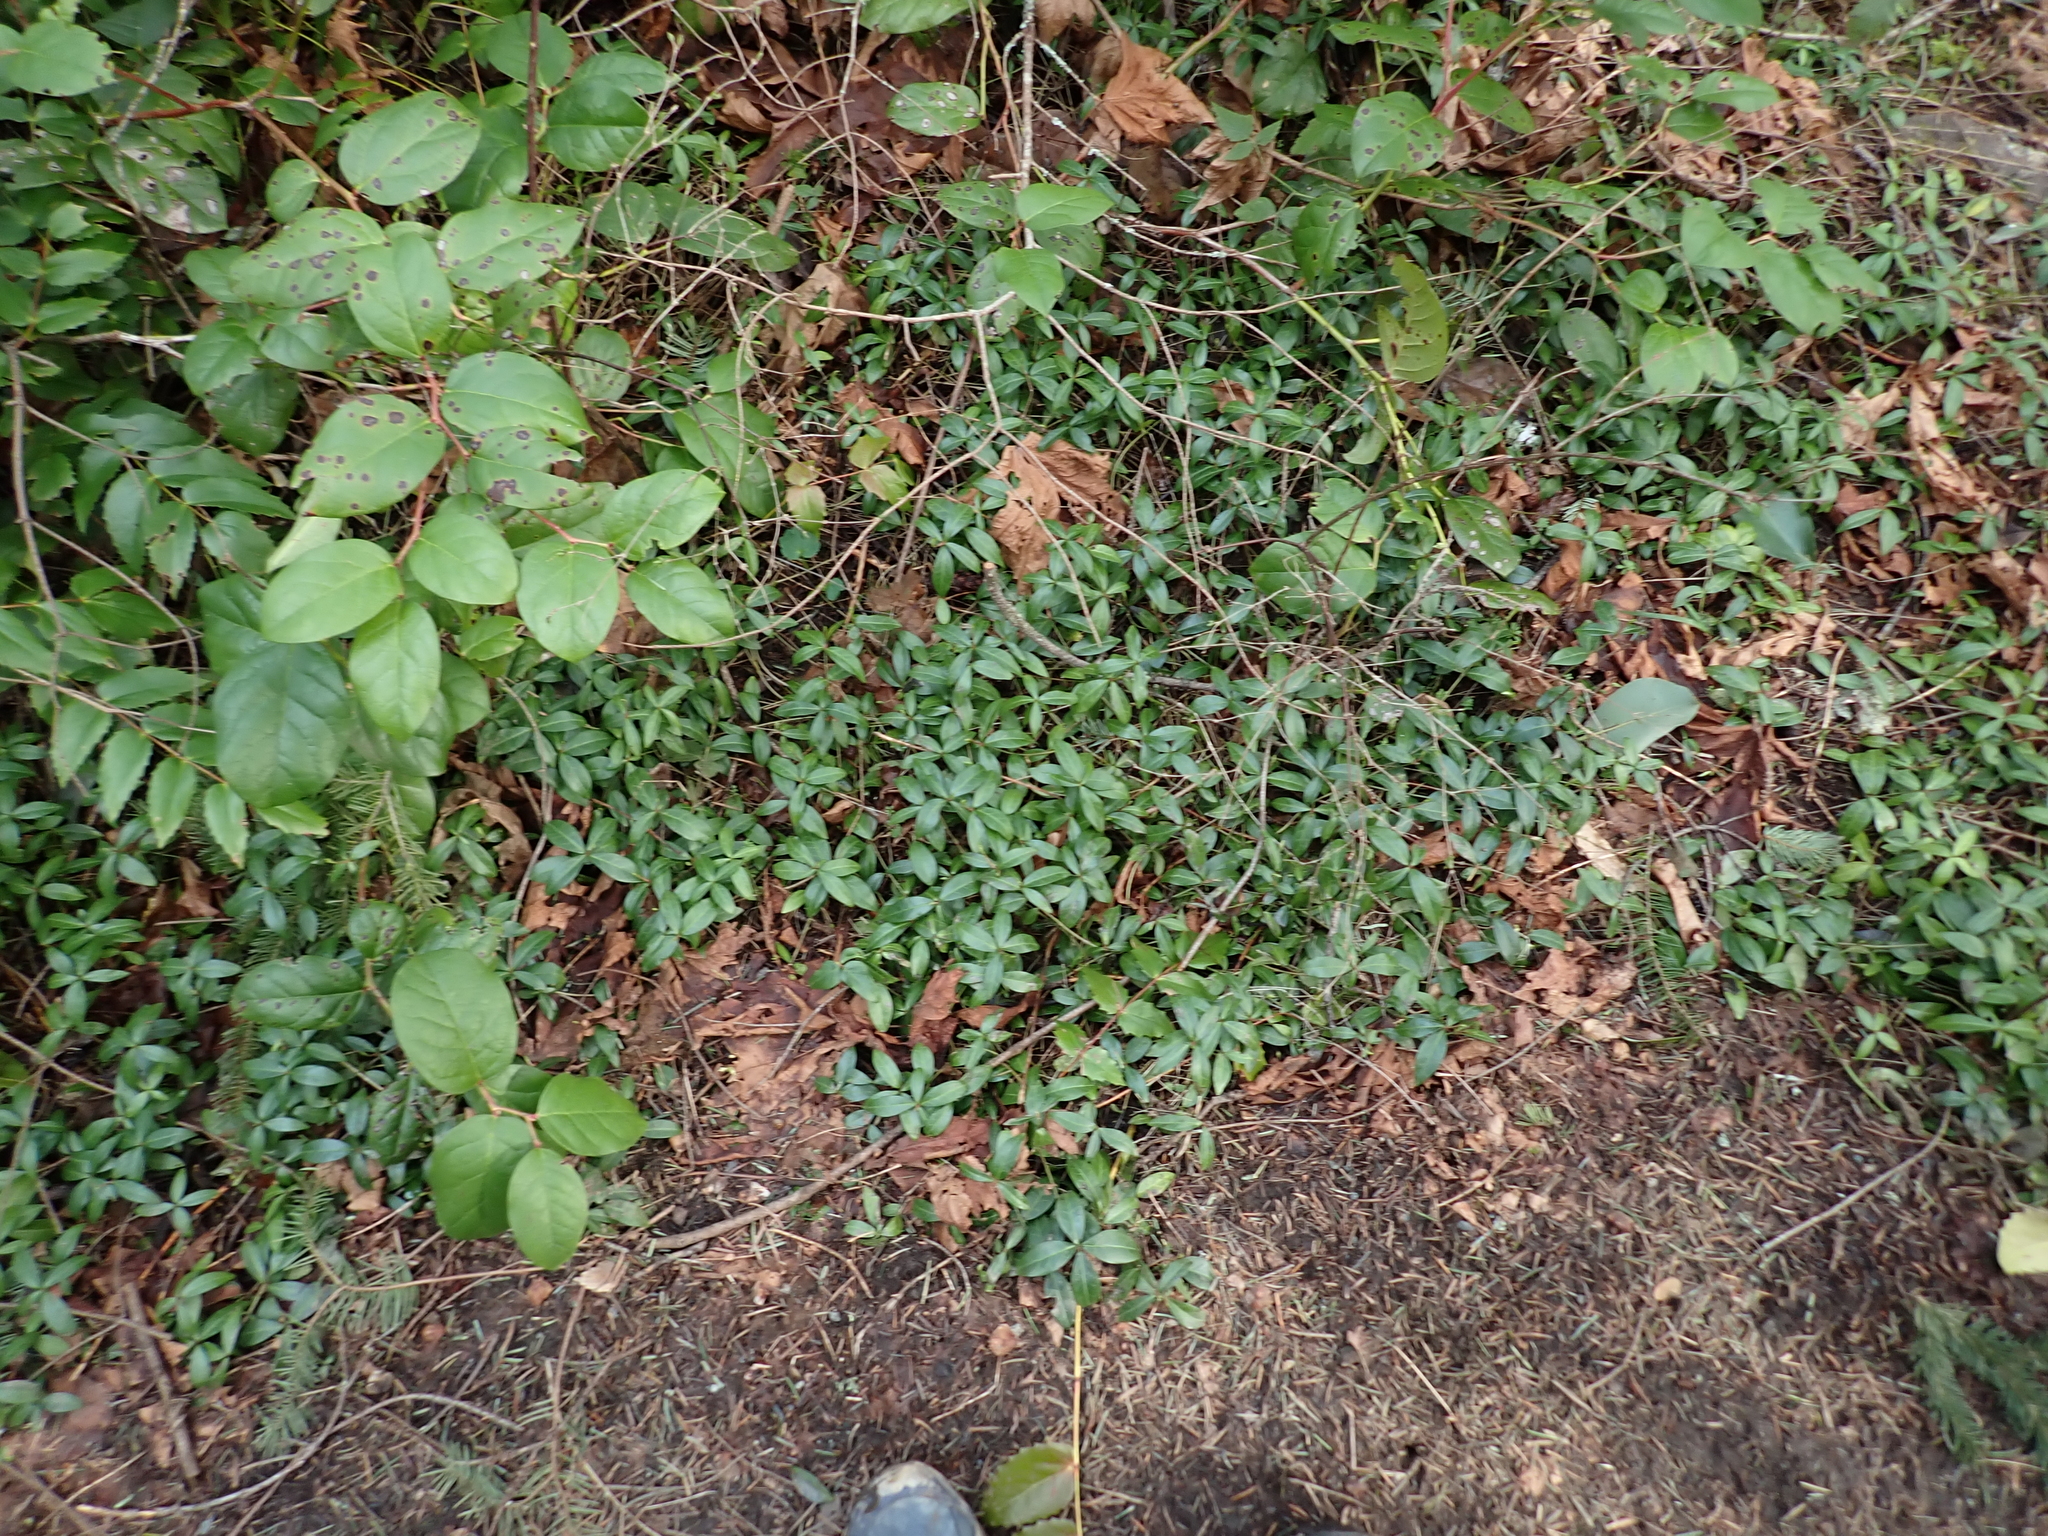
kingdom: Plantae
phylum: Tracheophyta
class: Magnoliopsida
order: Gentianales
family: Apocynaceae
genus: Vinca
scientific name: Vinca minor
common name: Lesser periwinkle
